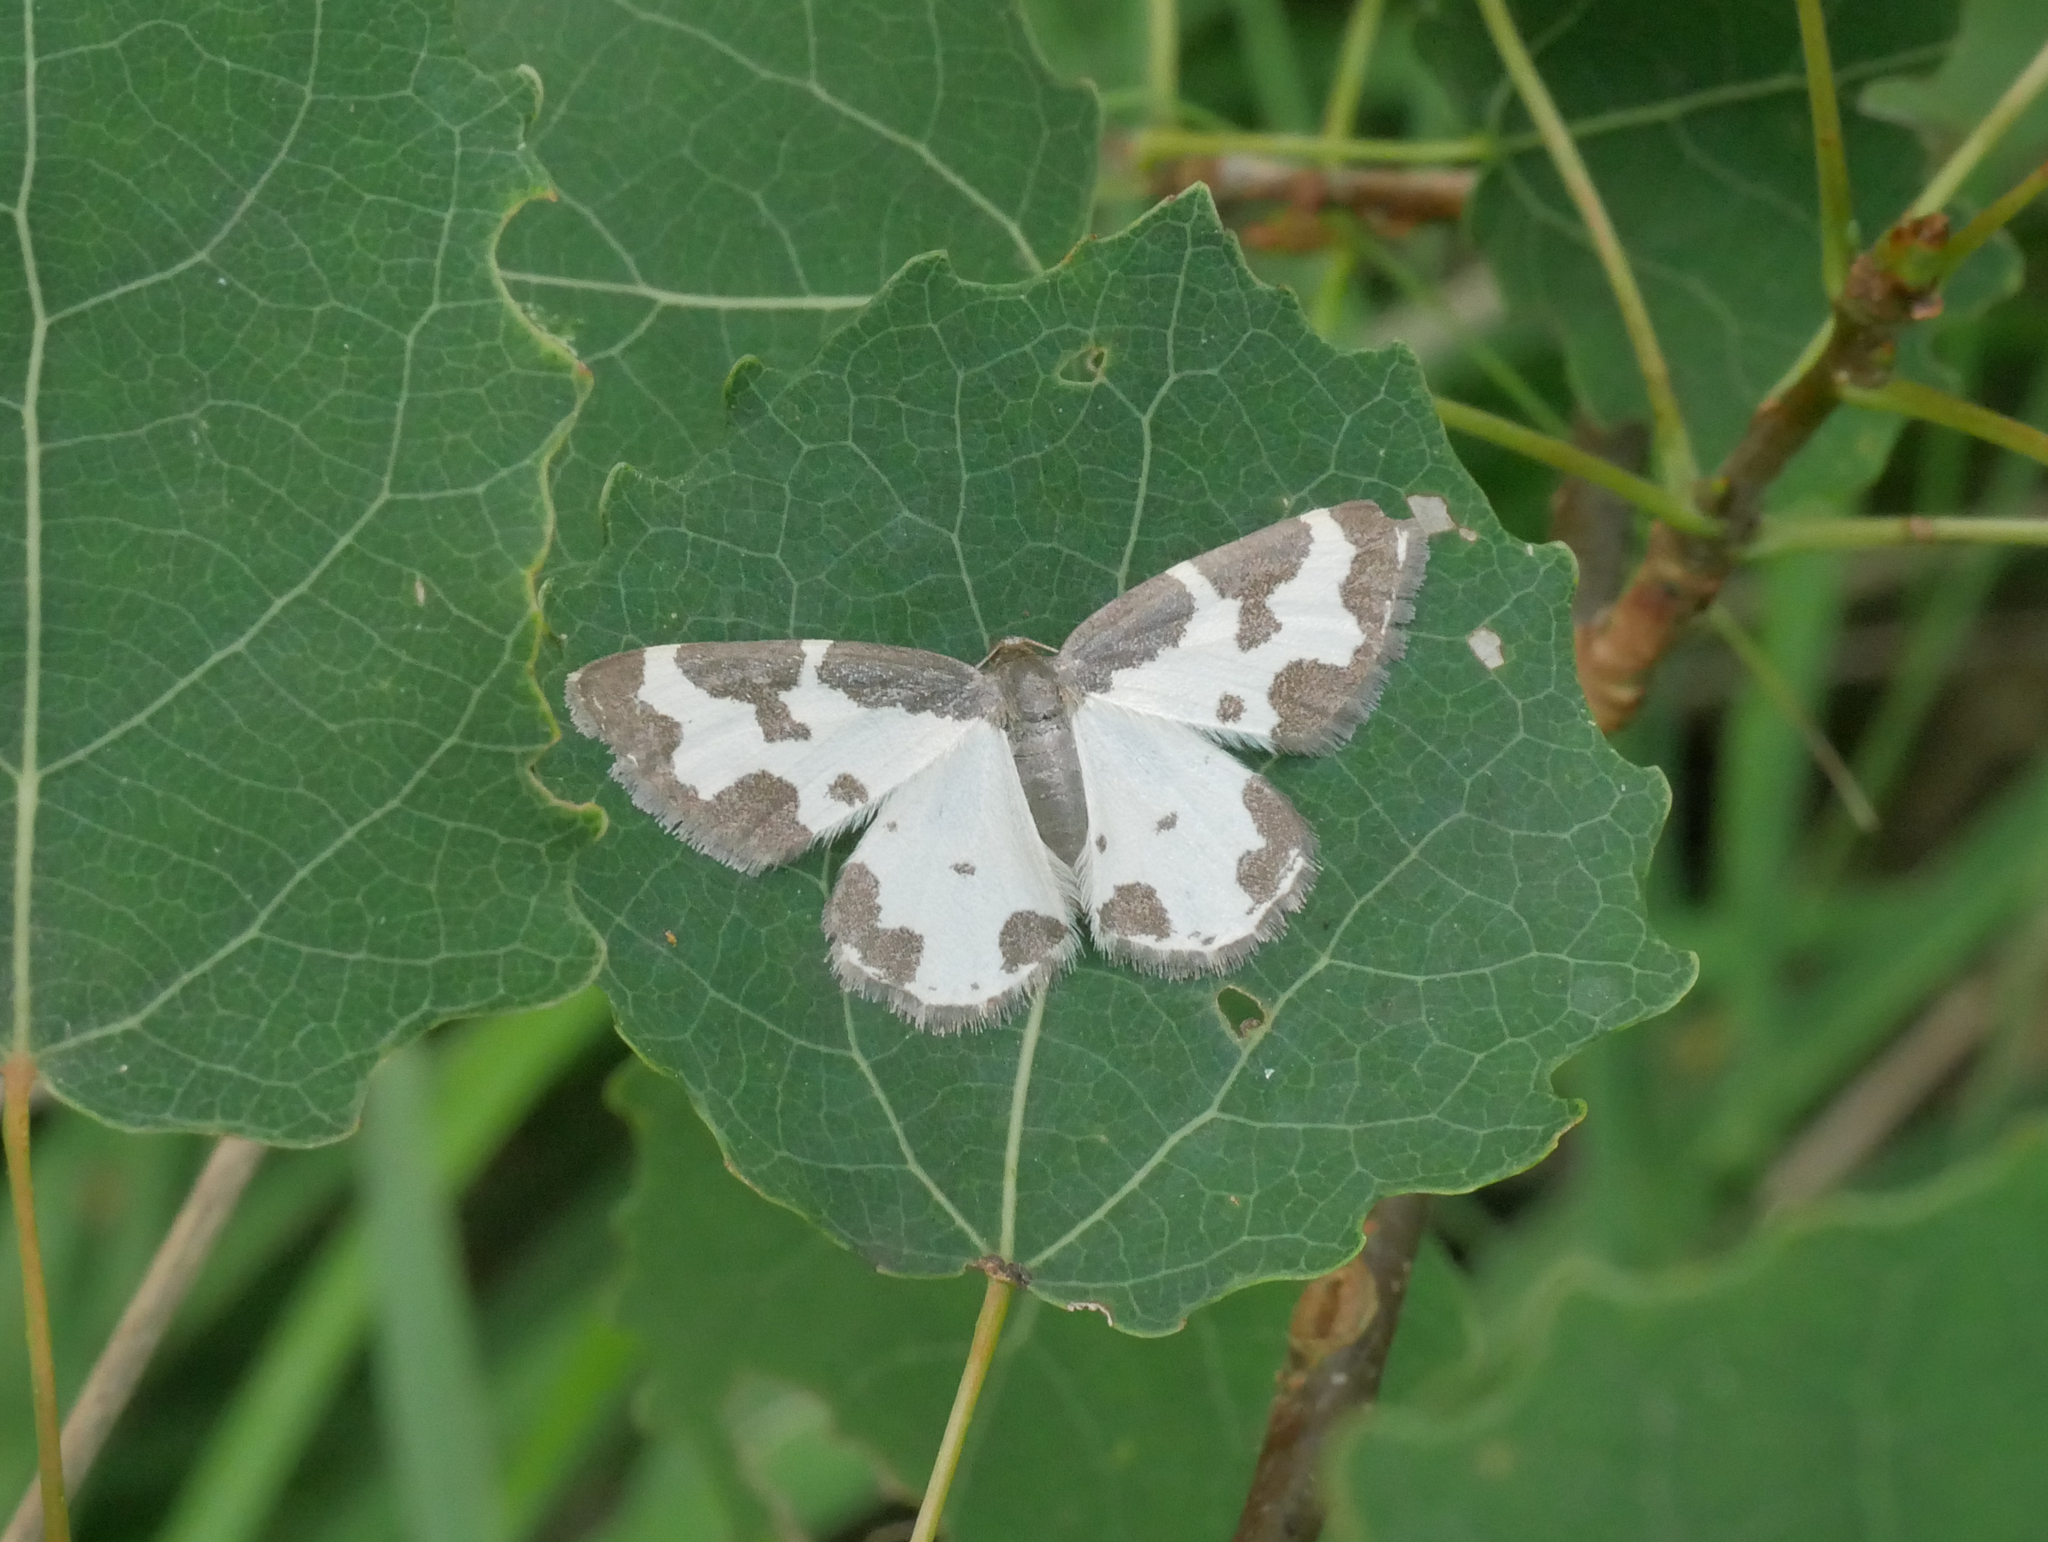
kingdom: Animalia
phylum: Arthropoda
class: Insecta
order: Lepidoptera
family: Geometridae
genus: Lomaspilis
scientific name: Lomaspilis marginata
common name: Clouded border
